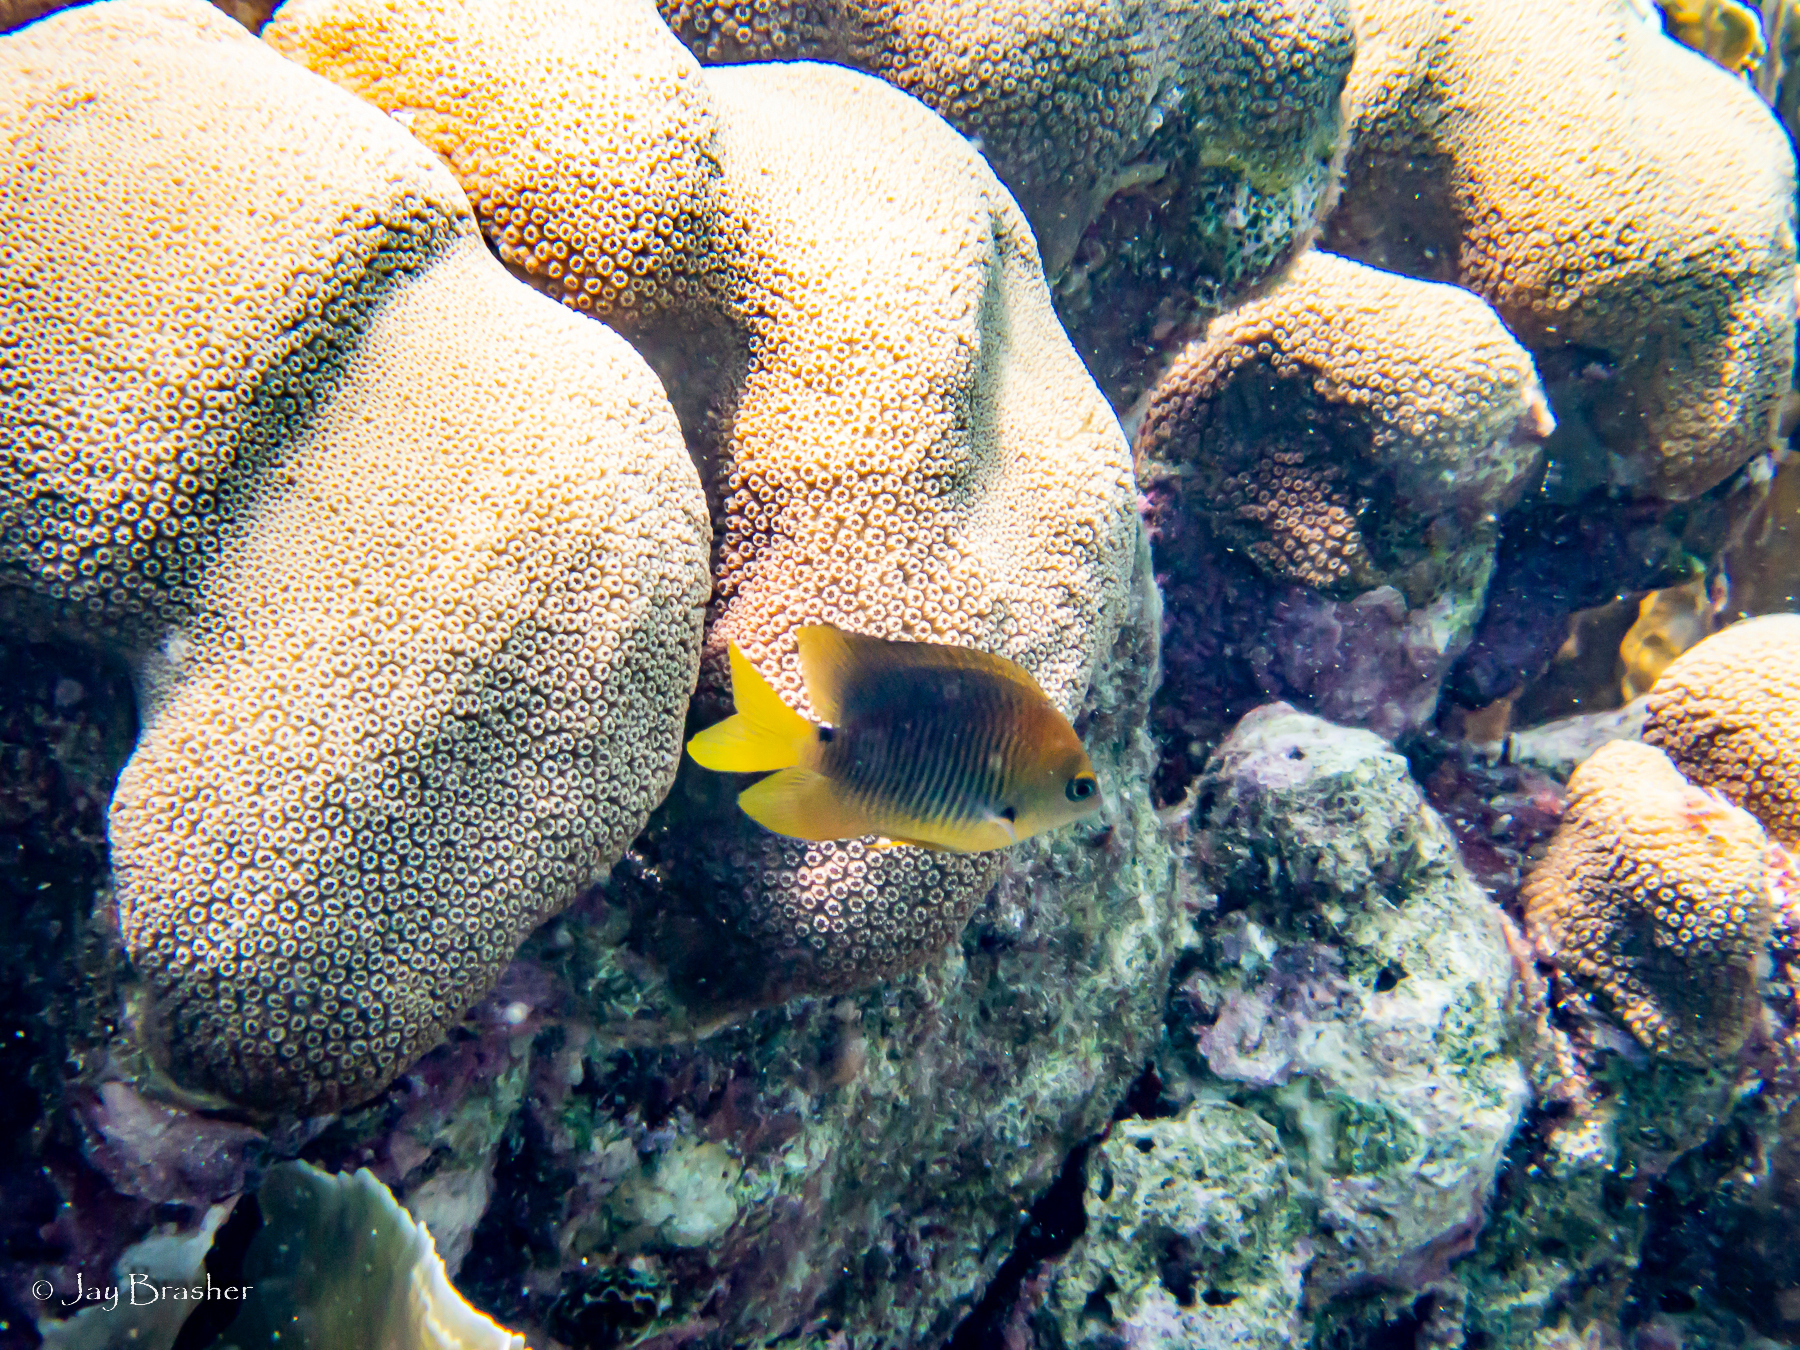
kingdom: Animalia
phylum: Chordata
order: Perciformes
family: Pomacentridae
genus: Stegastes
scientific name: Stegastes planifrons
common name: Threespot damselfish
